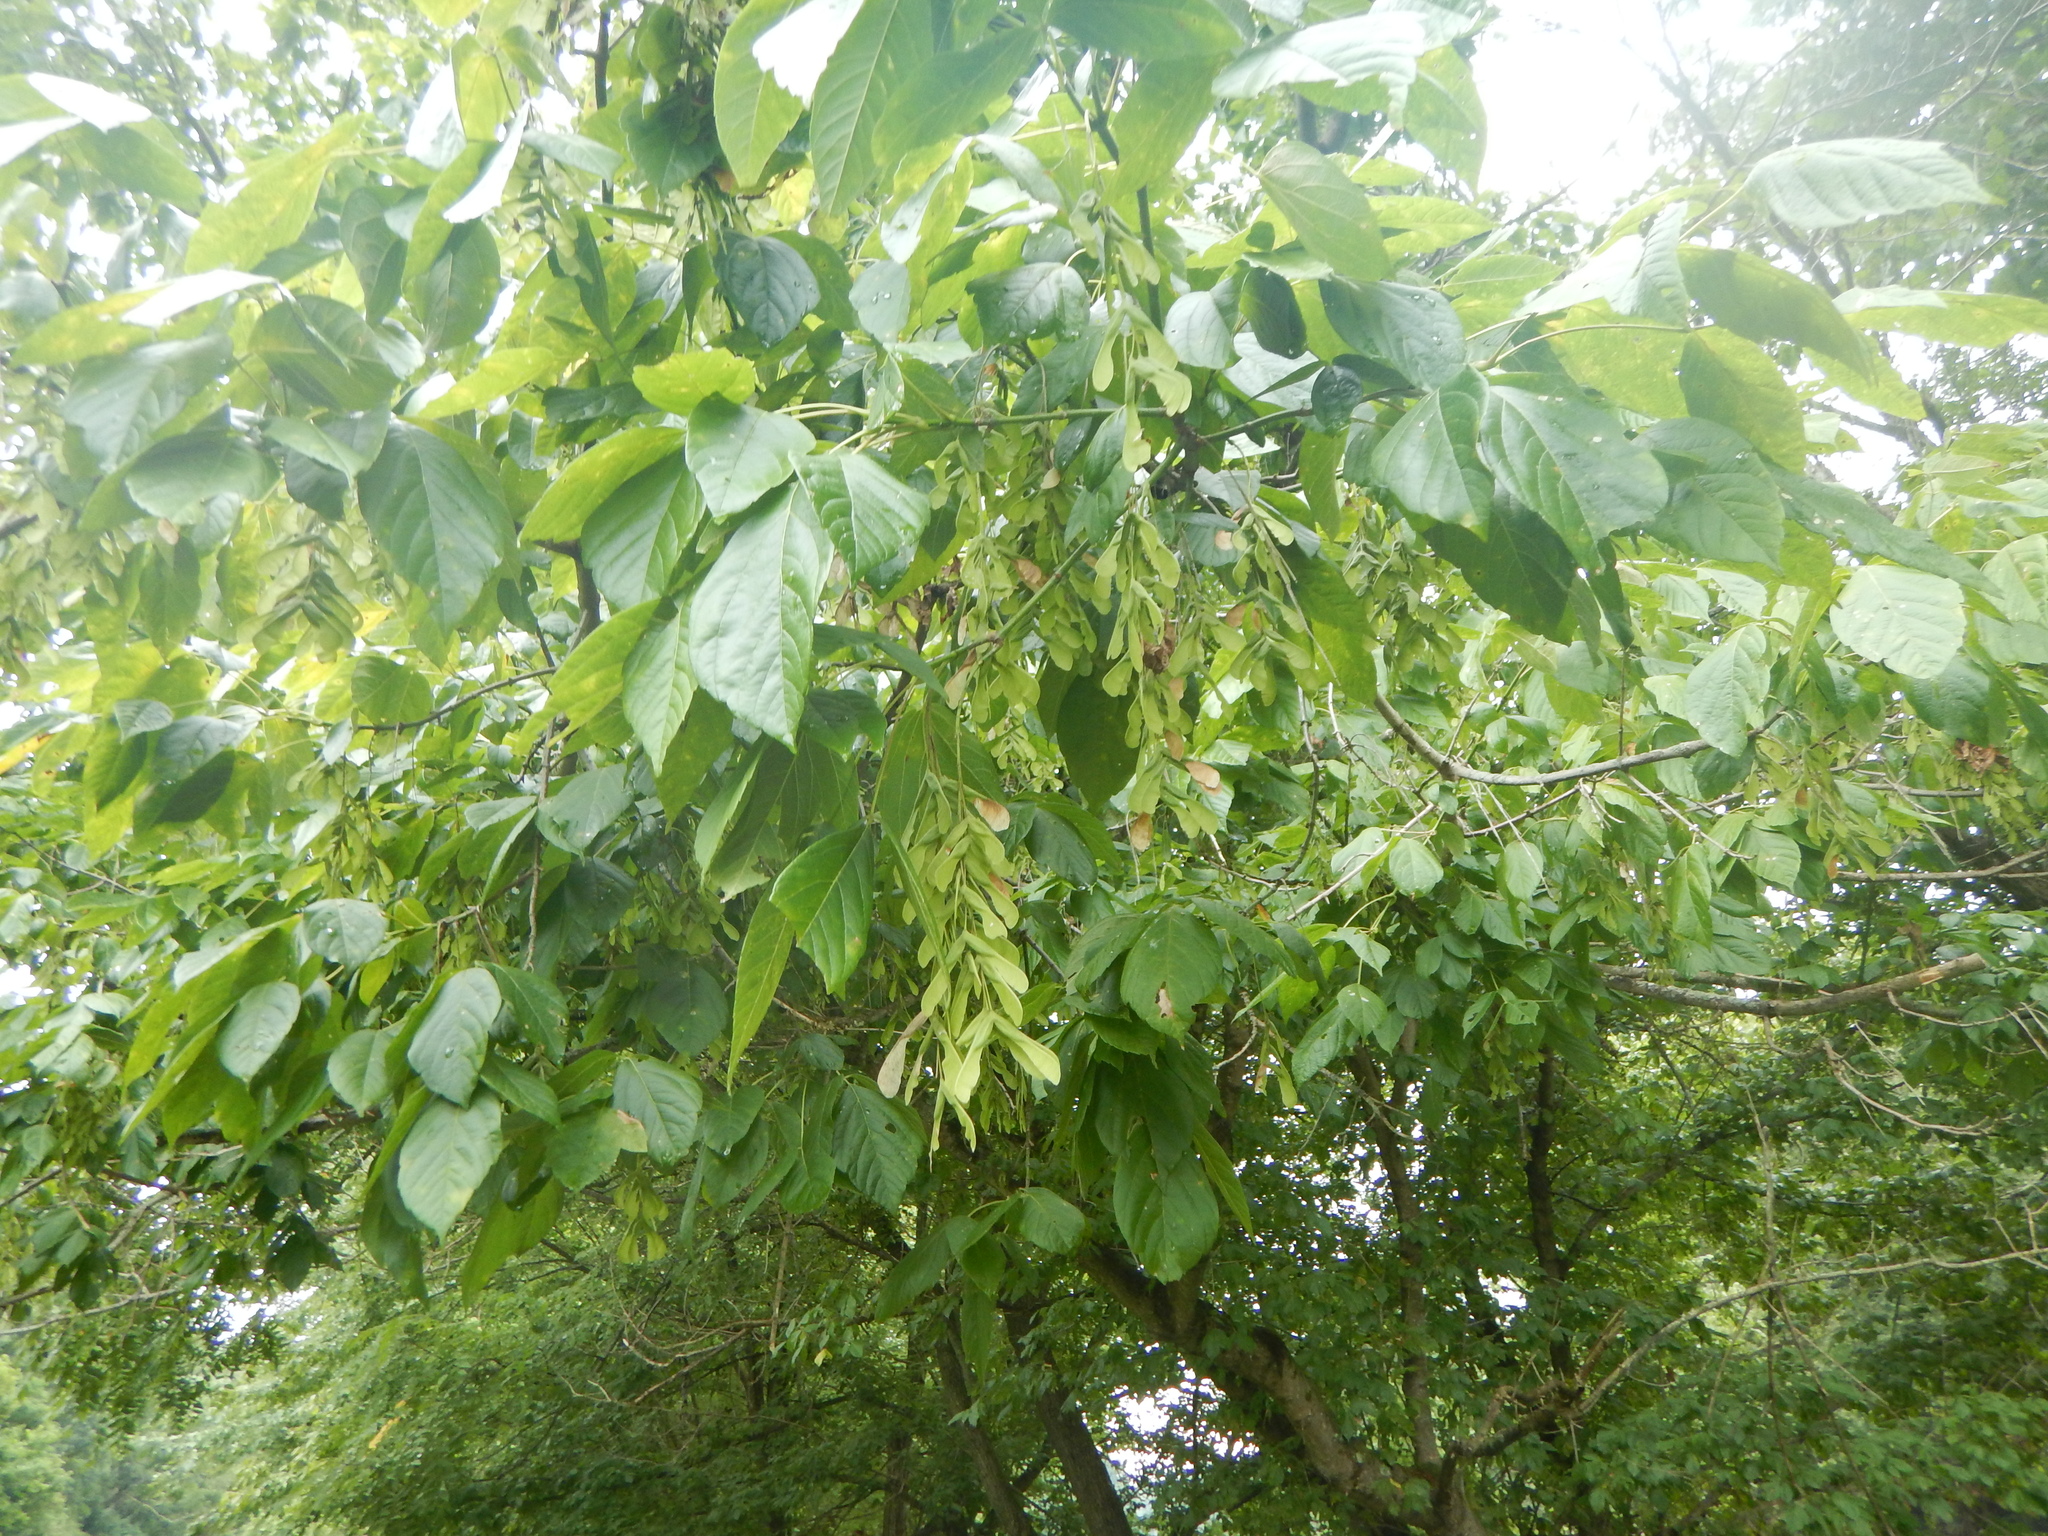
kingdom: Plantae
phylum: Tracheophyta
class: Magnoliopsida
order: Sapindales
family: Sapindaceae
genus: Acer
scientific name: Acer negundo
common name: Ashleaf maple
